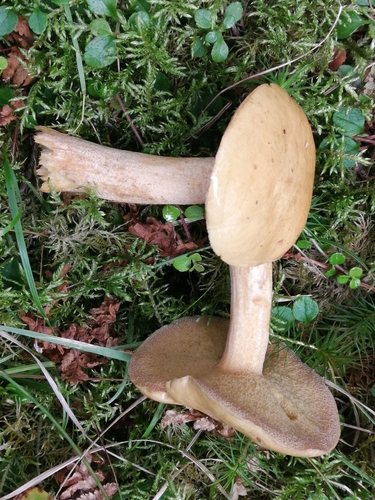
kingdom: Fungi
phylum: Basidiomycota
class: Agaricomycetes
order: Boletales
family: Suillaceae
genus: Suillus
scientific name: Suillus variegatus
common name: Velvet bolete
